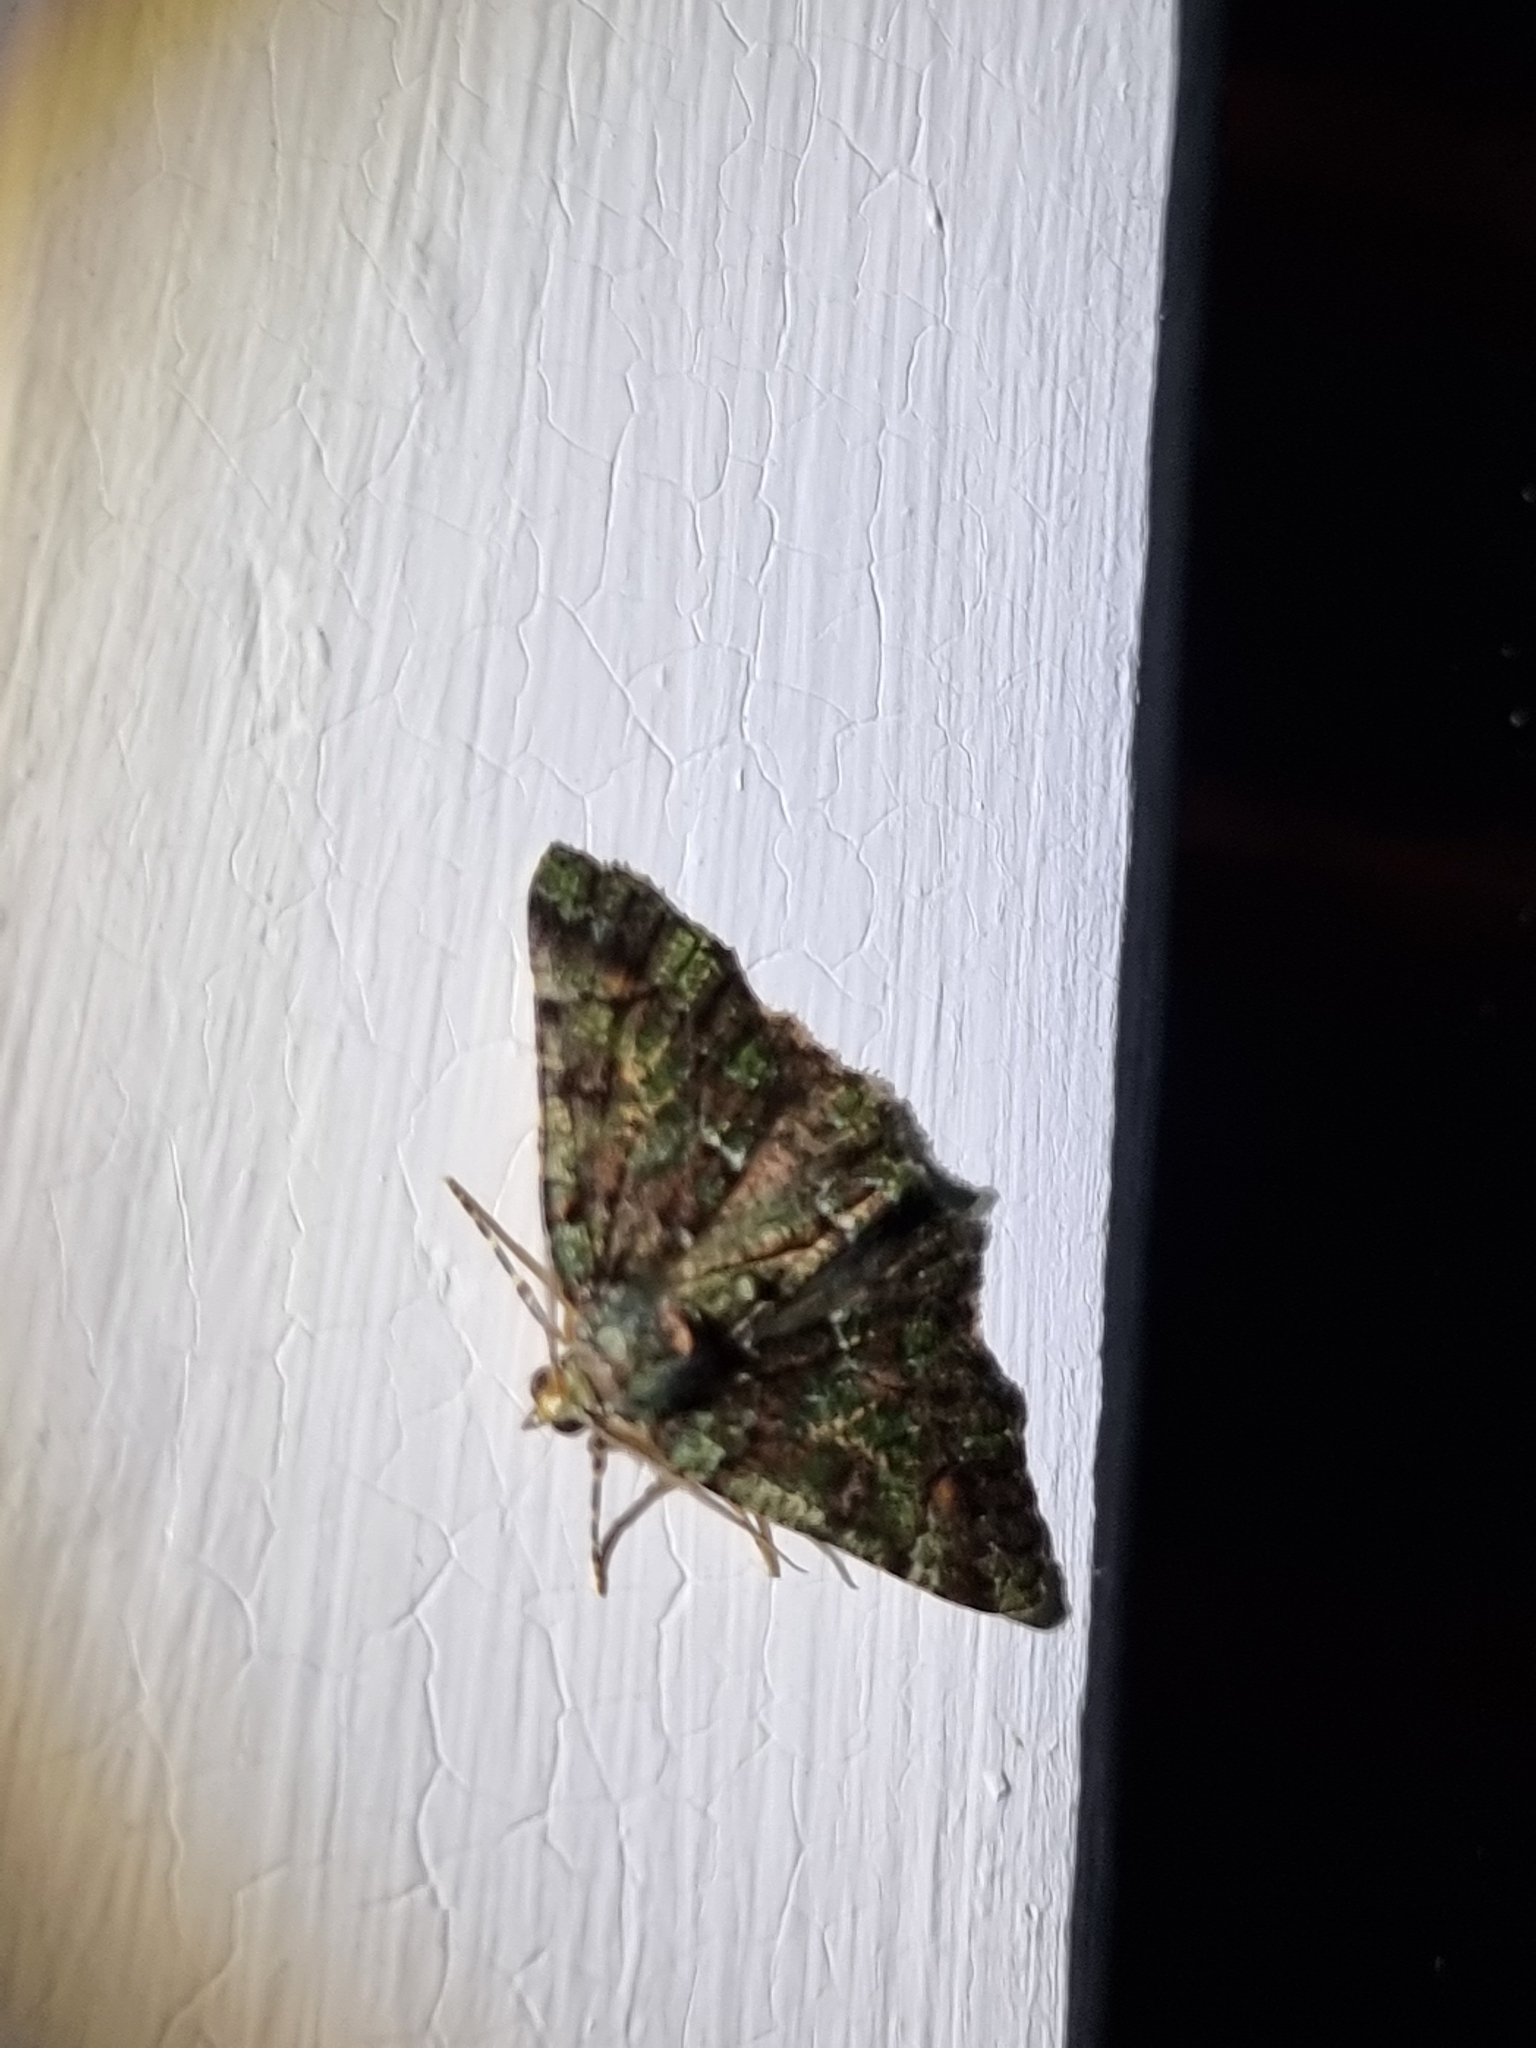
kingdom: Animalia
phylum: Arthropoda
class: Insecta
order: Lepidoptera
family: Geometridae
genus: Aeolochroma
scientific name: Aeolochroma metarhodata
